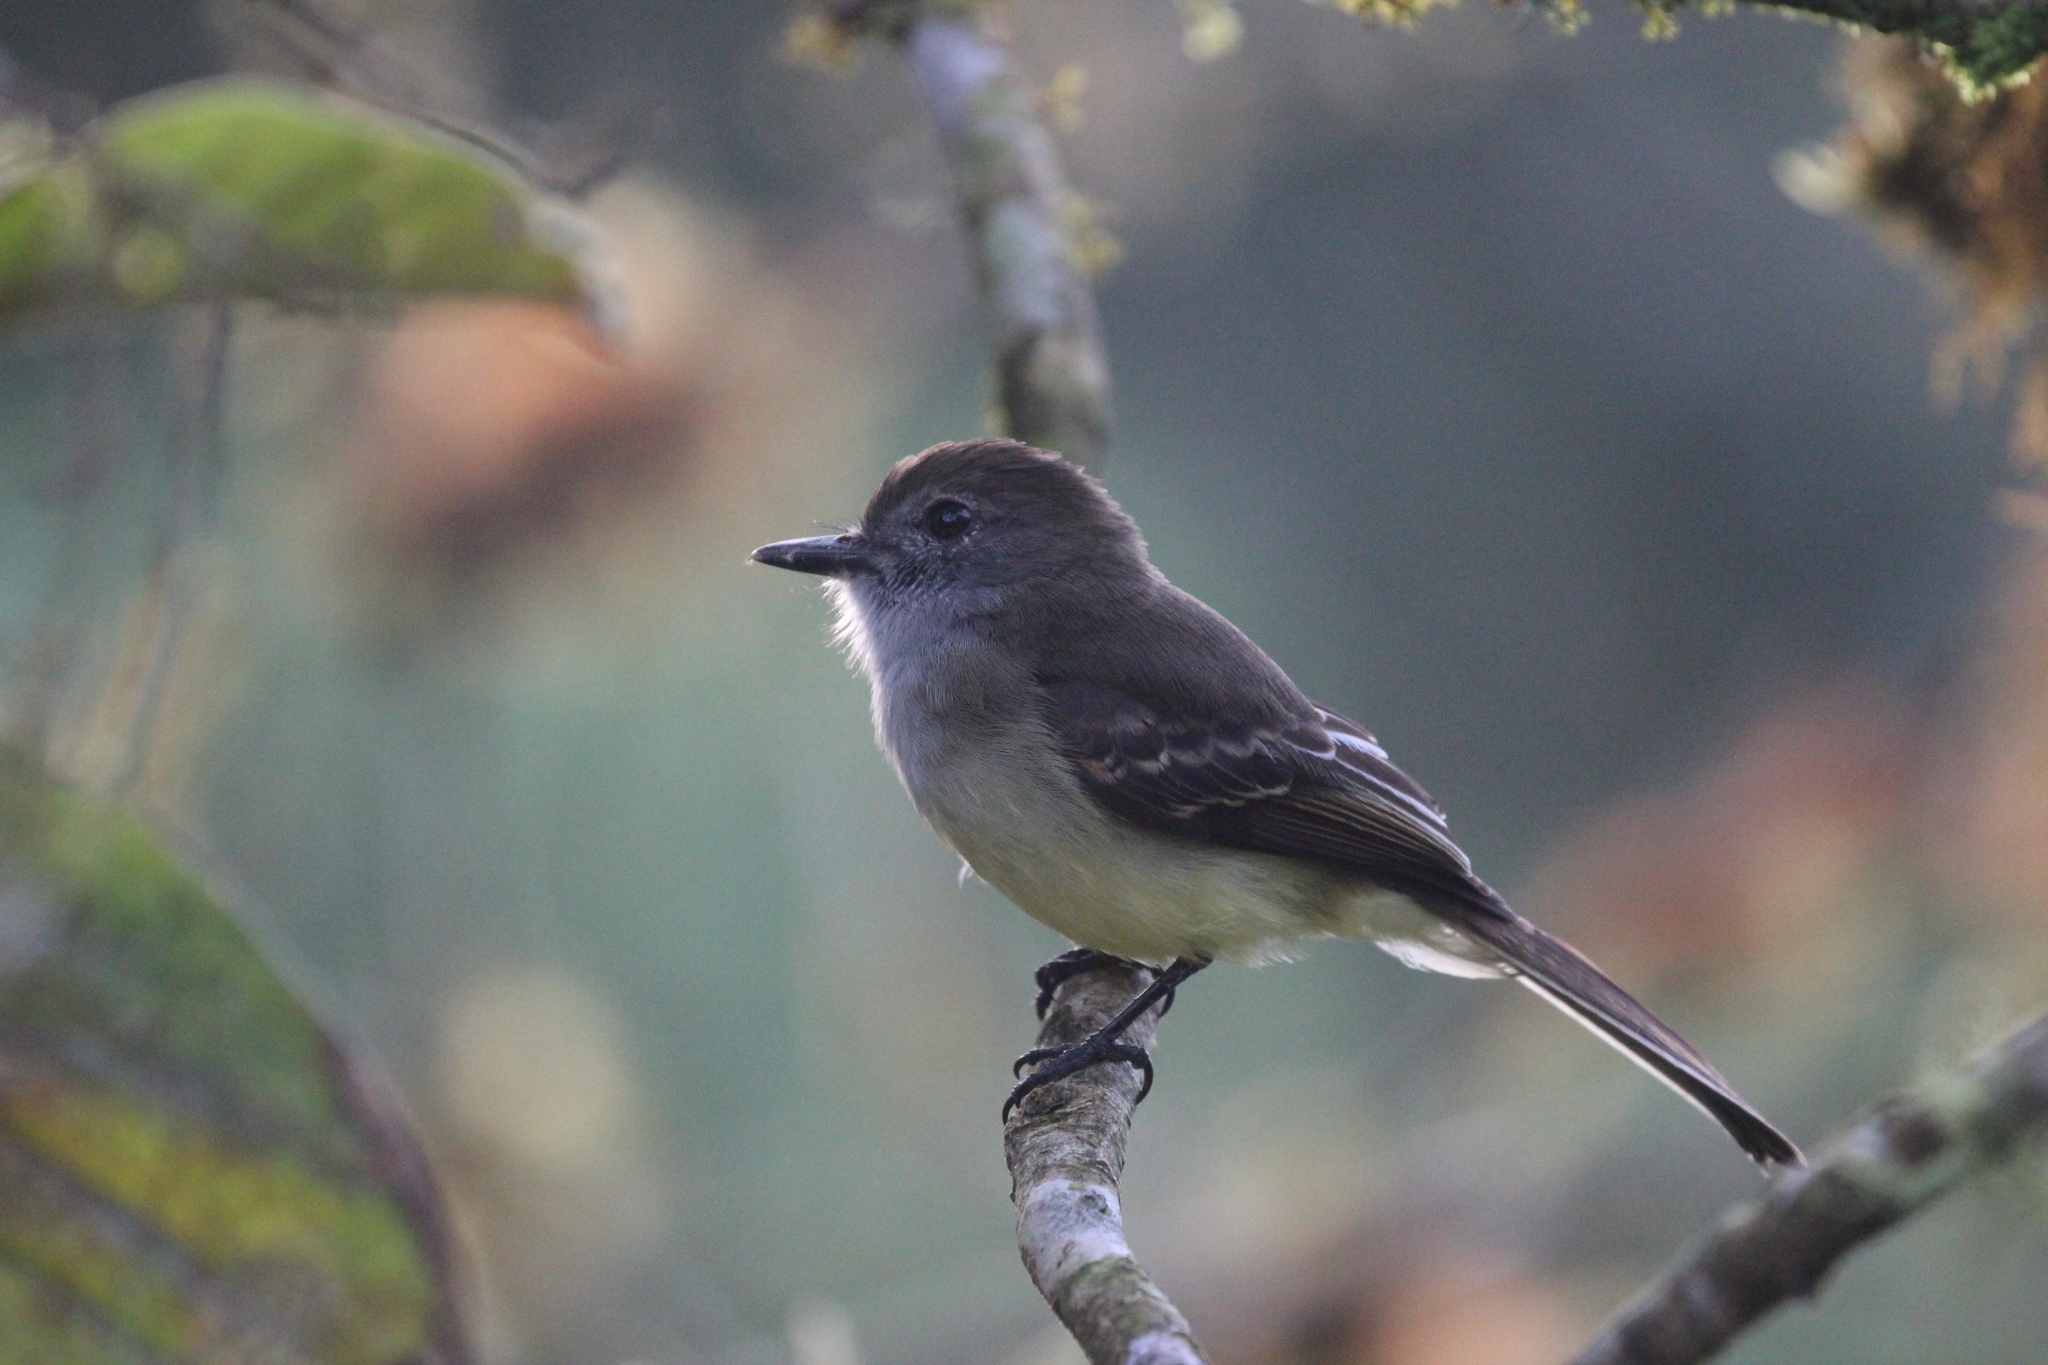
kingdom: Animalia
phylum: Chordata
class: Aves
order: Passeriformes
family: Tyrannidae
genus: Myiarchus
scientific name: Myiarchus cephalotes
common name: Pale-edged flycatcher
